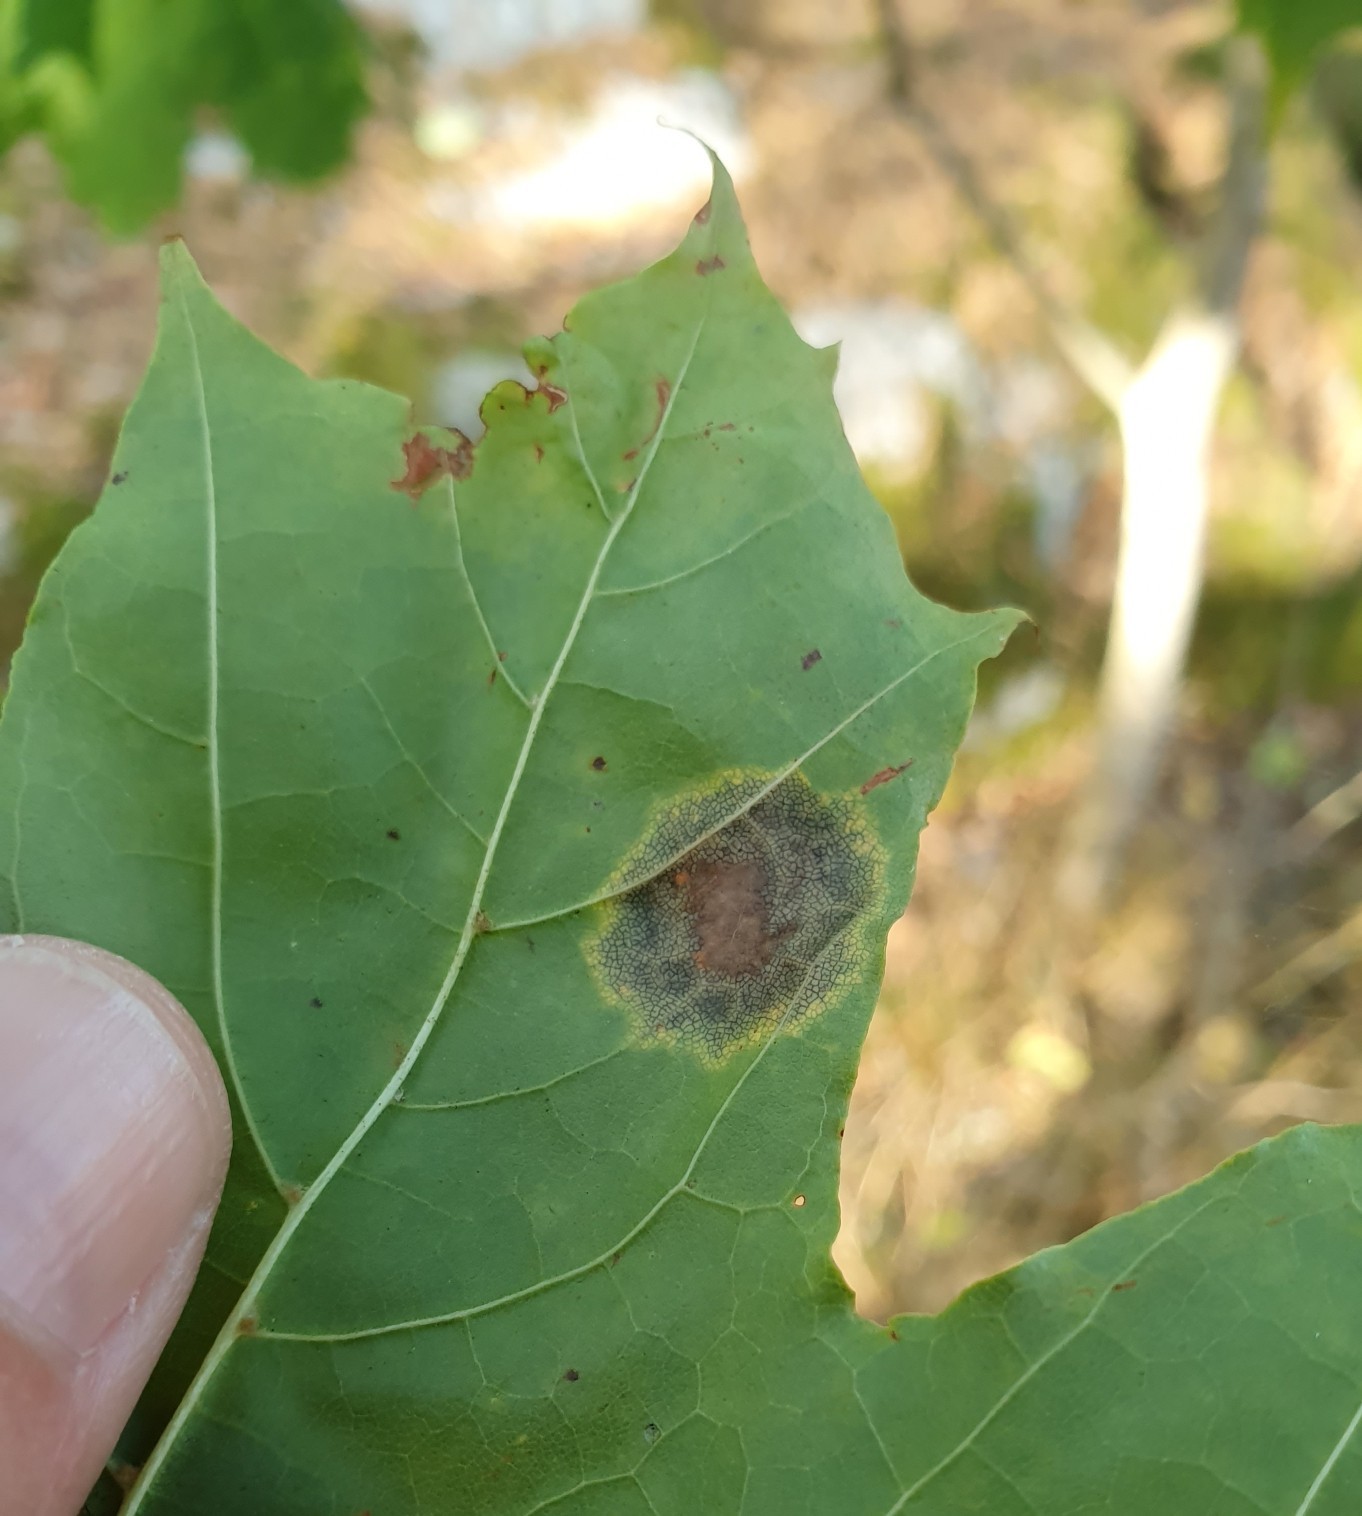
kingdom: Fungi
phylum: Ascomycota
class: Leotiomycetes
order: Rhytismatales
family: Rhytismataceae
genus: Rhytisma
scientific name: Rhytisma acerinum
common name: European tar spot
